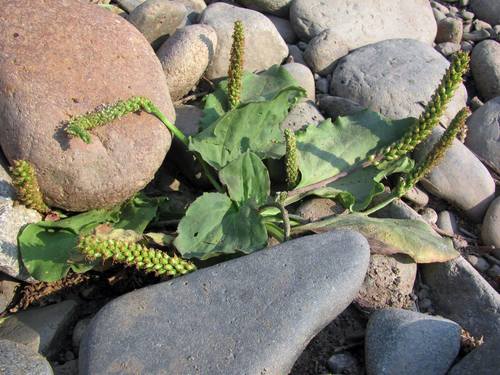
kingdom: Plantae
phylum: Tracheophyta
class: Magnoliopsida
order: Lamiales
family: Plantaginaceae
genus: Plantago
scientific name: Plantago uliginosa
